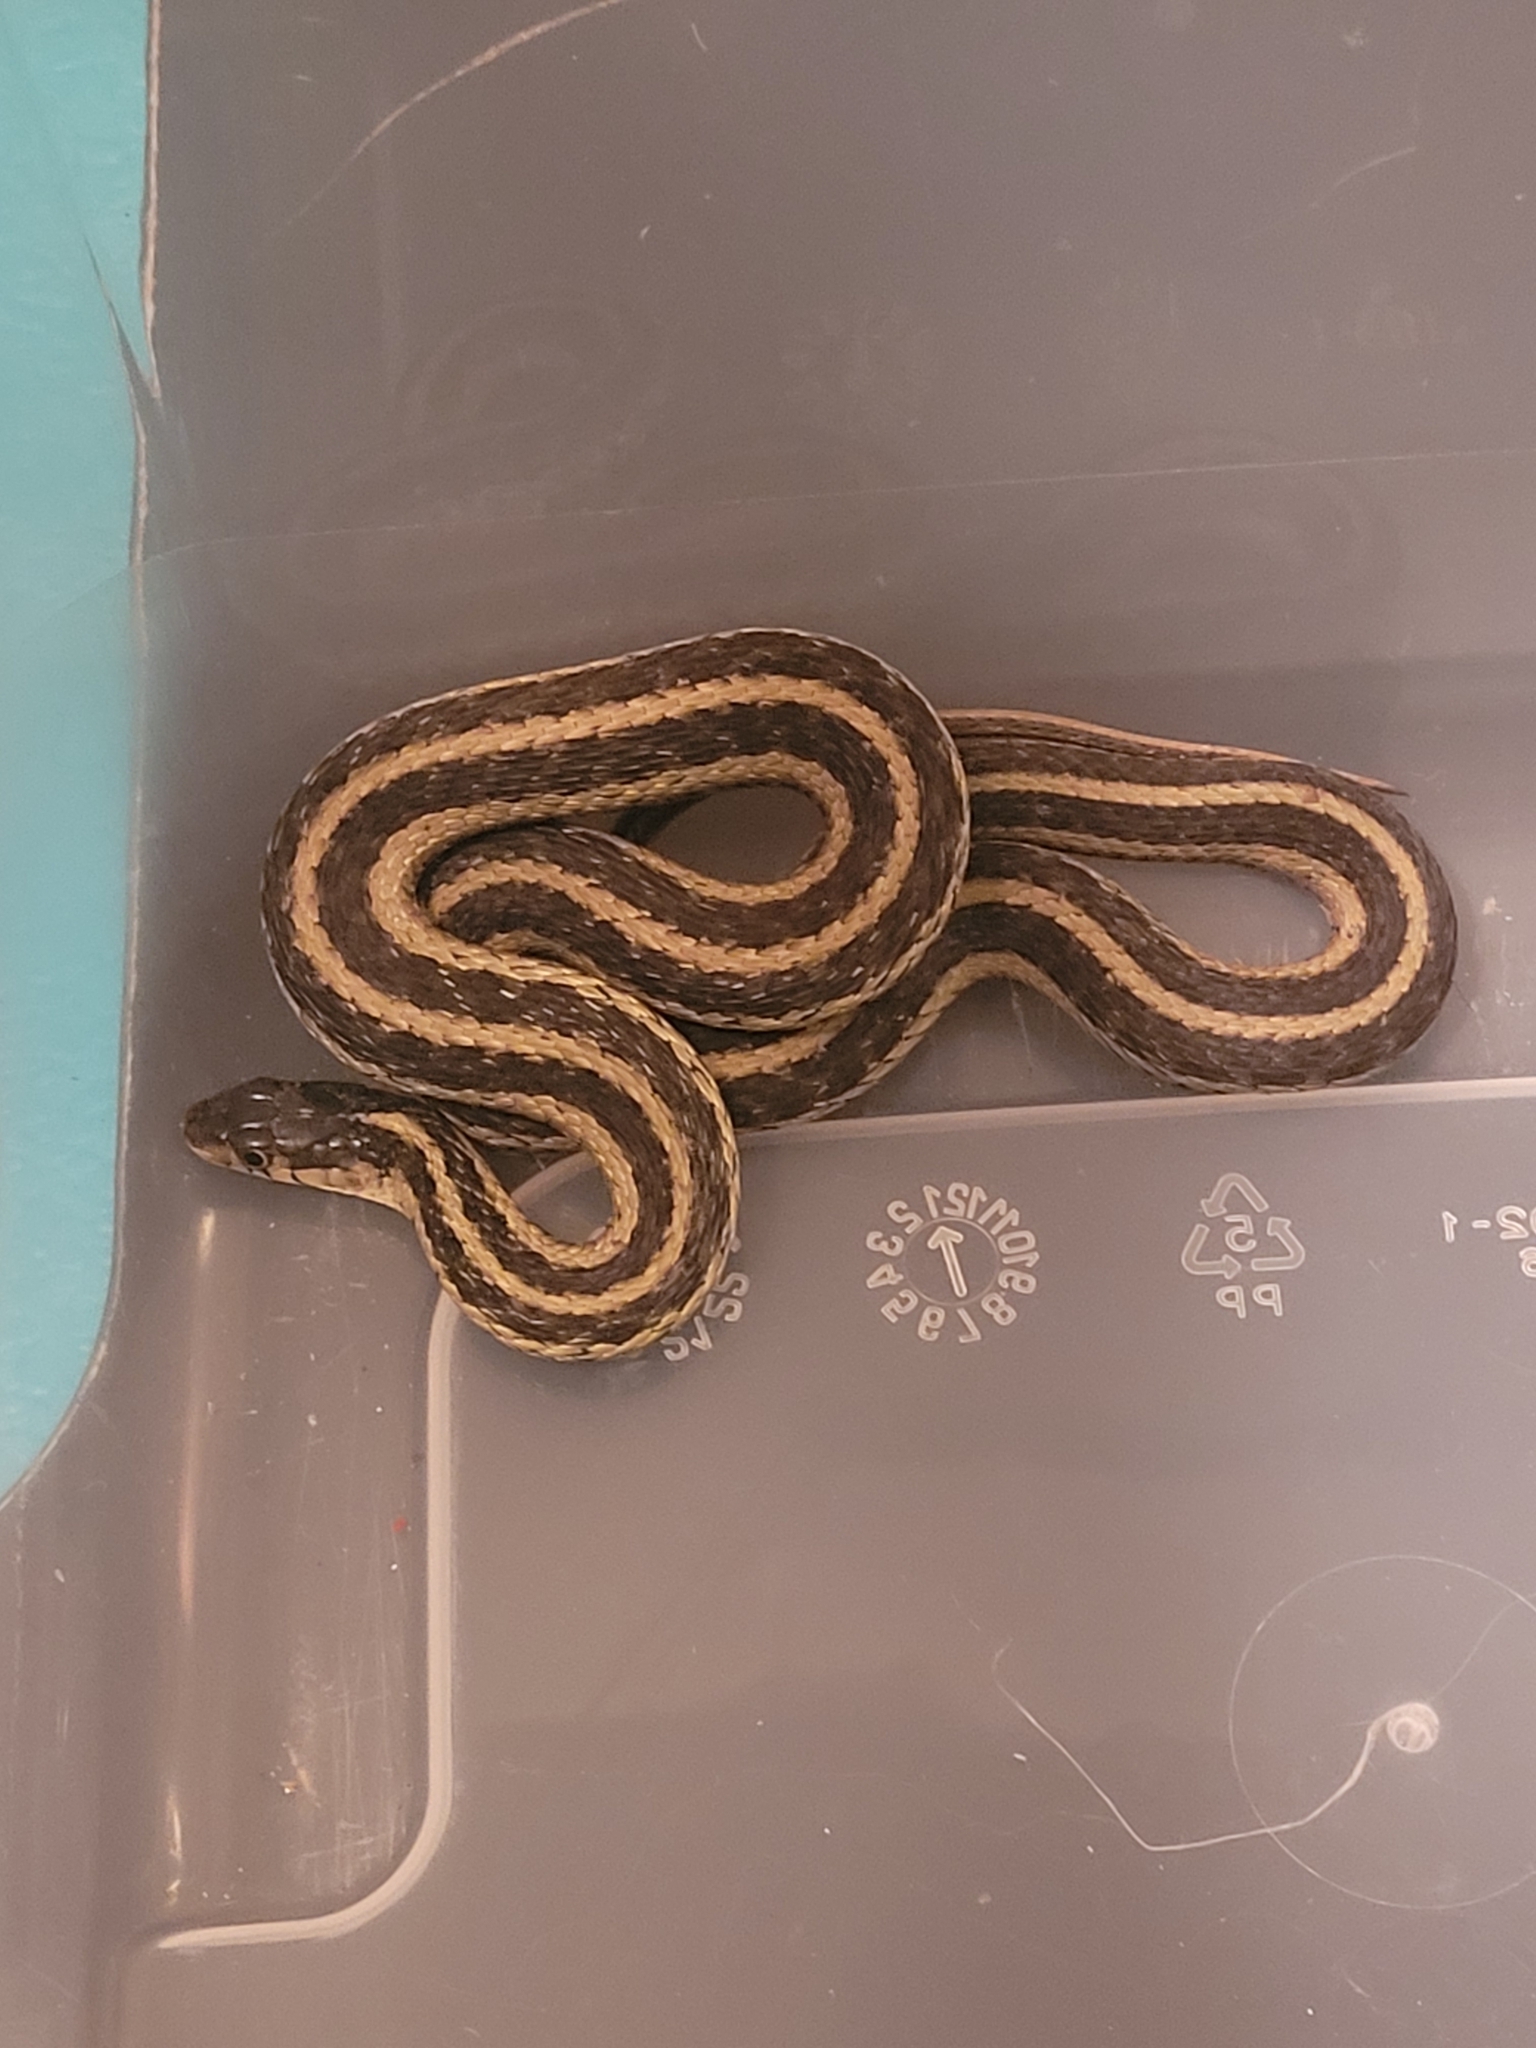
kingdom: Animalia
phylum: Chordata
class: Squamata
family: Colubridae
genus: Thamnophis
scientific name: Thamnophis sirtalis
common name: Common garter snake
